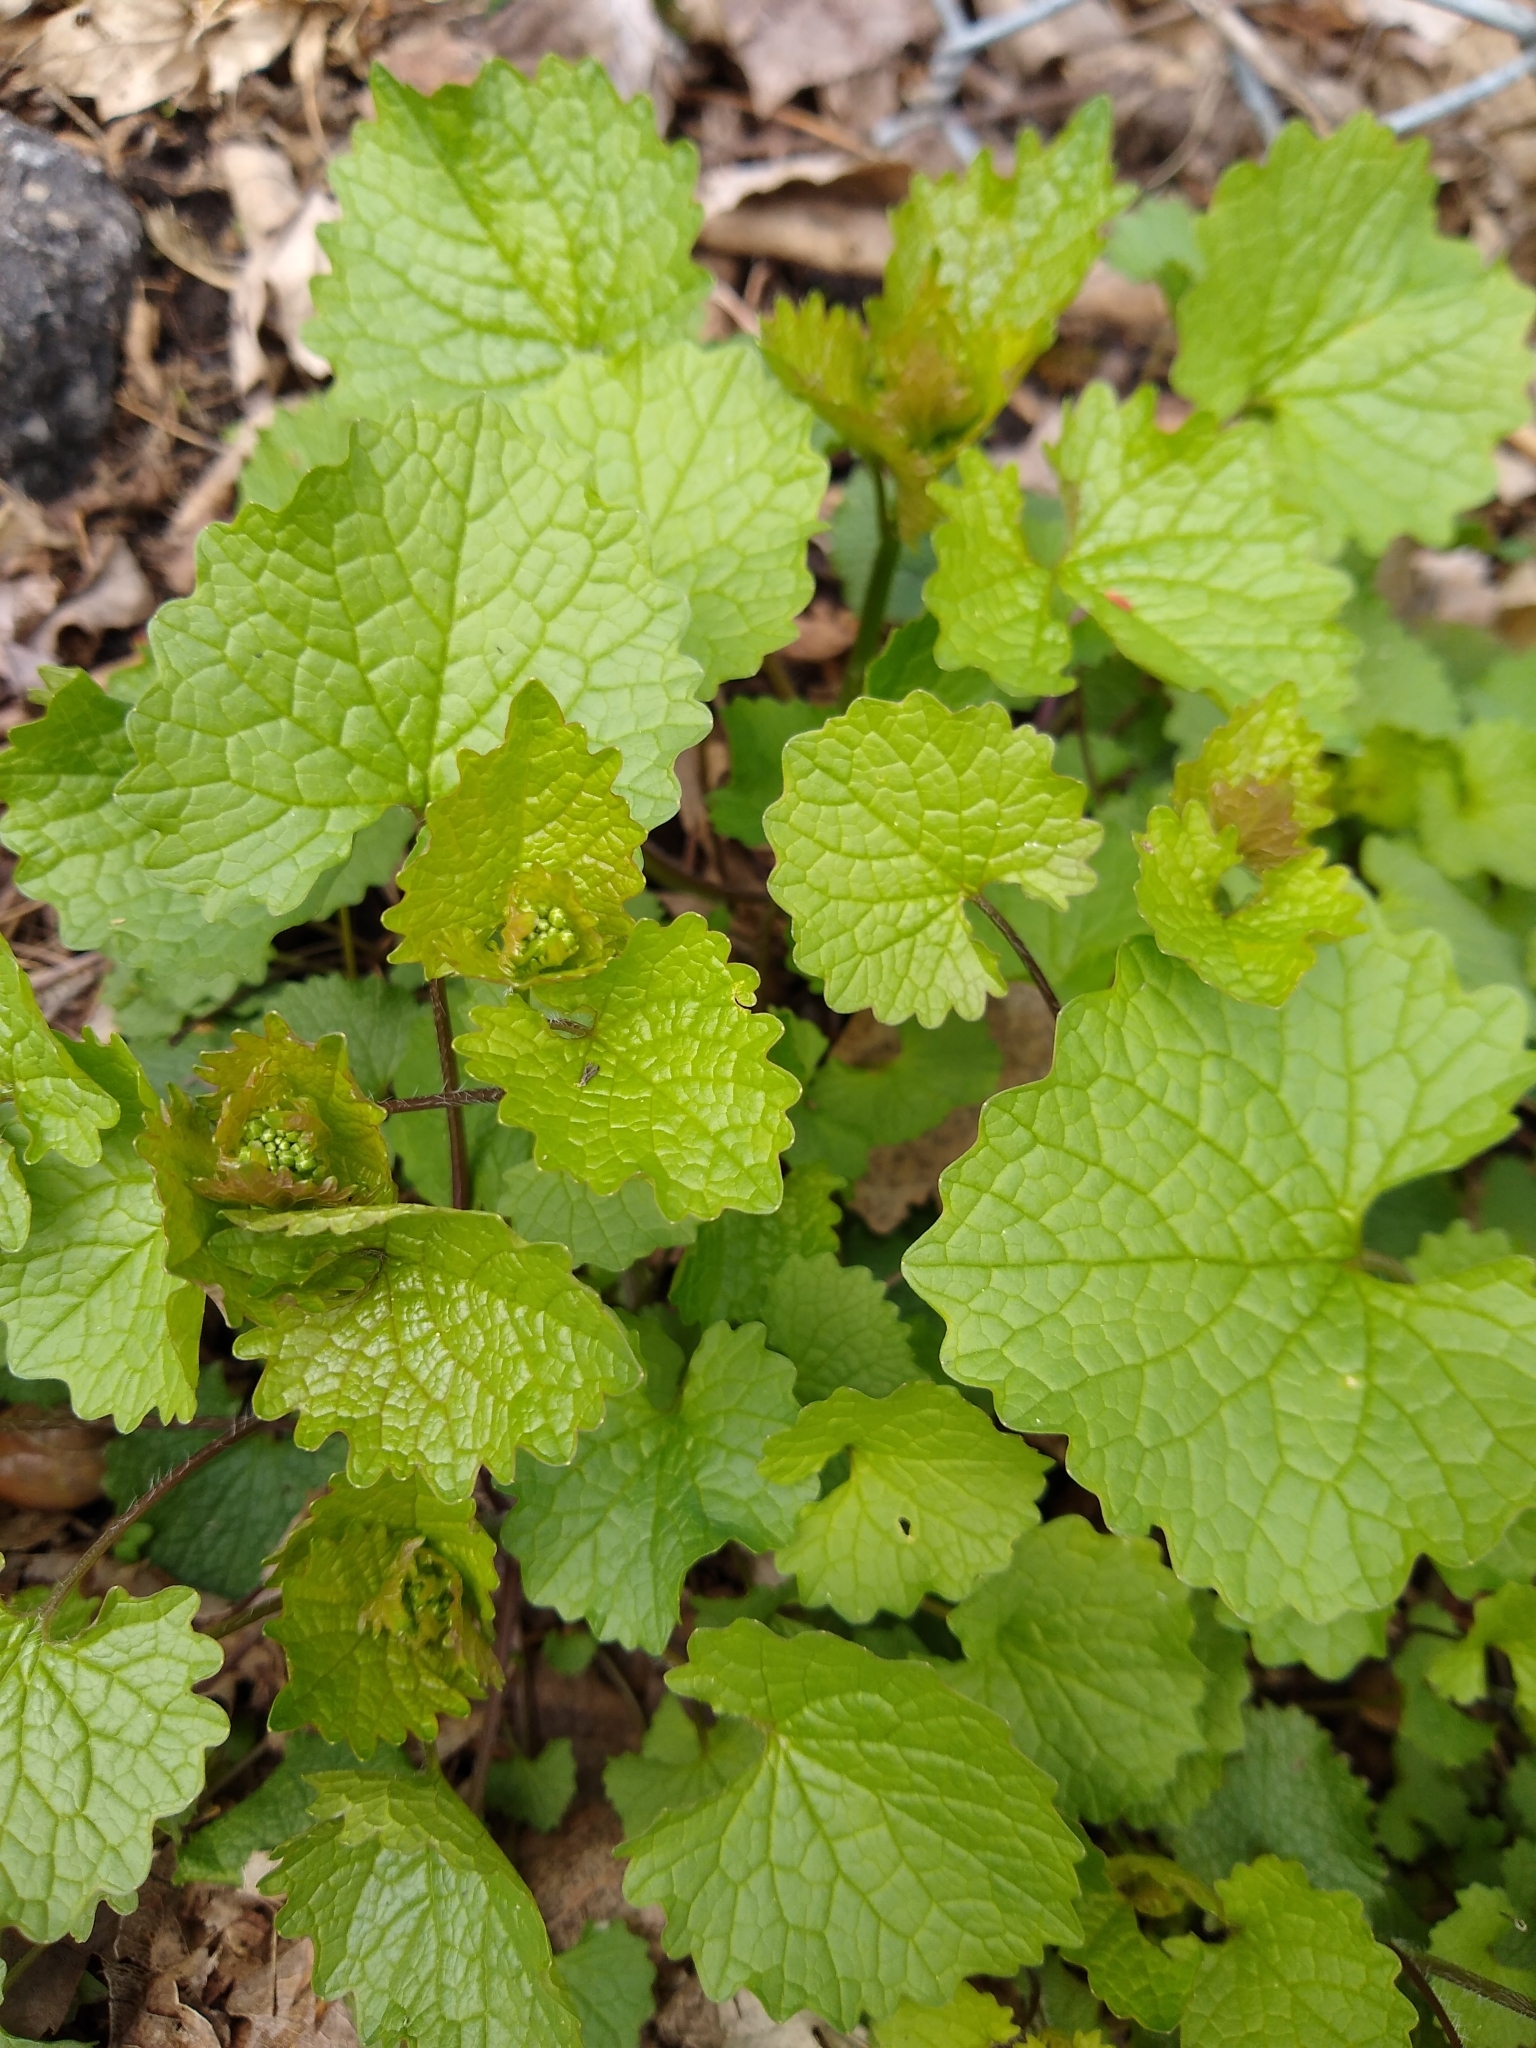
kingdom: Plantae
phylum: Tracheophyta
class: Magnoliopsida
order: Brassicales
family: Brassicaceae
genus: Alliaria
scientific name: Alliaria petiolata
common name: Garlic mustard
